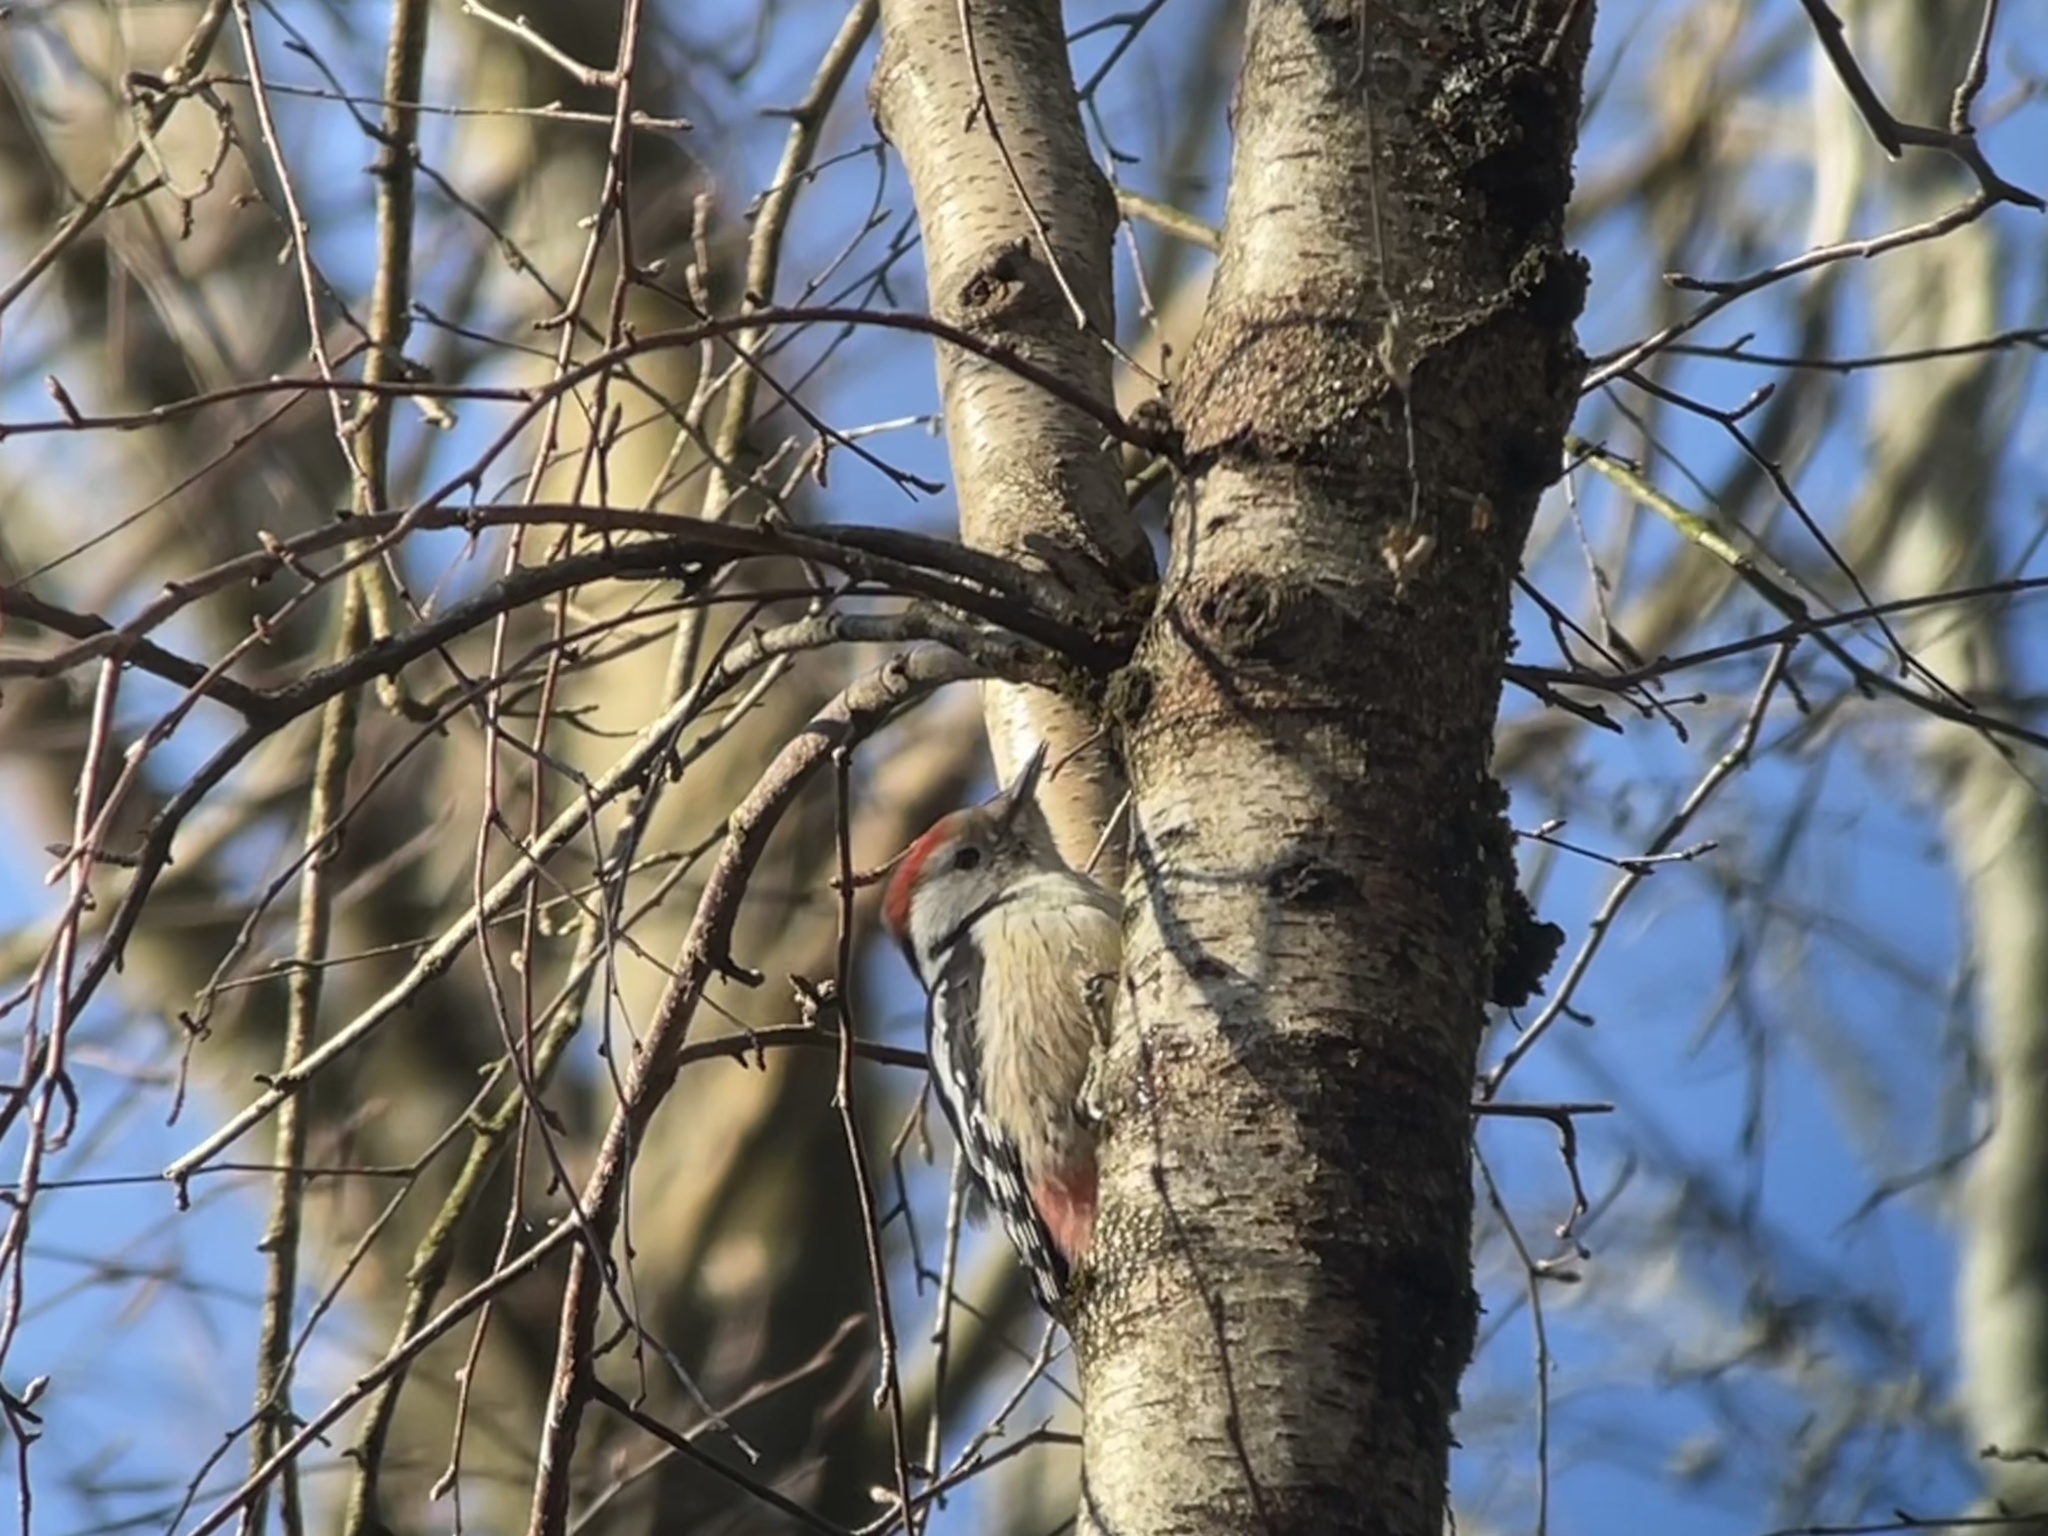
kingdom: Animalia
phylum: Chordata
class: Aves
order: Piciformes
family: Picidae
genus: Dendrocoptes
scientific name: Dendrocoptes medius
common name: Middle spotted woodpecker
